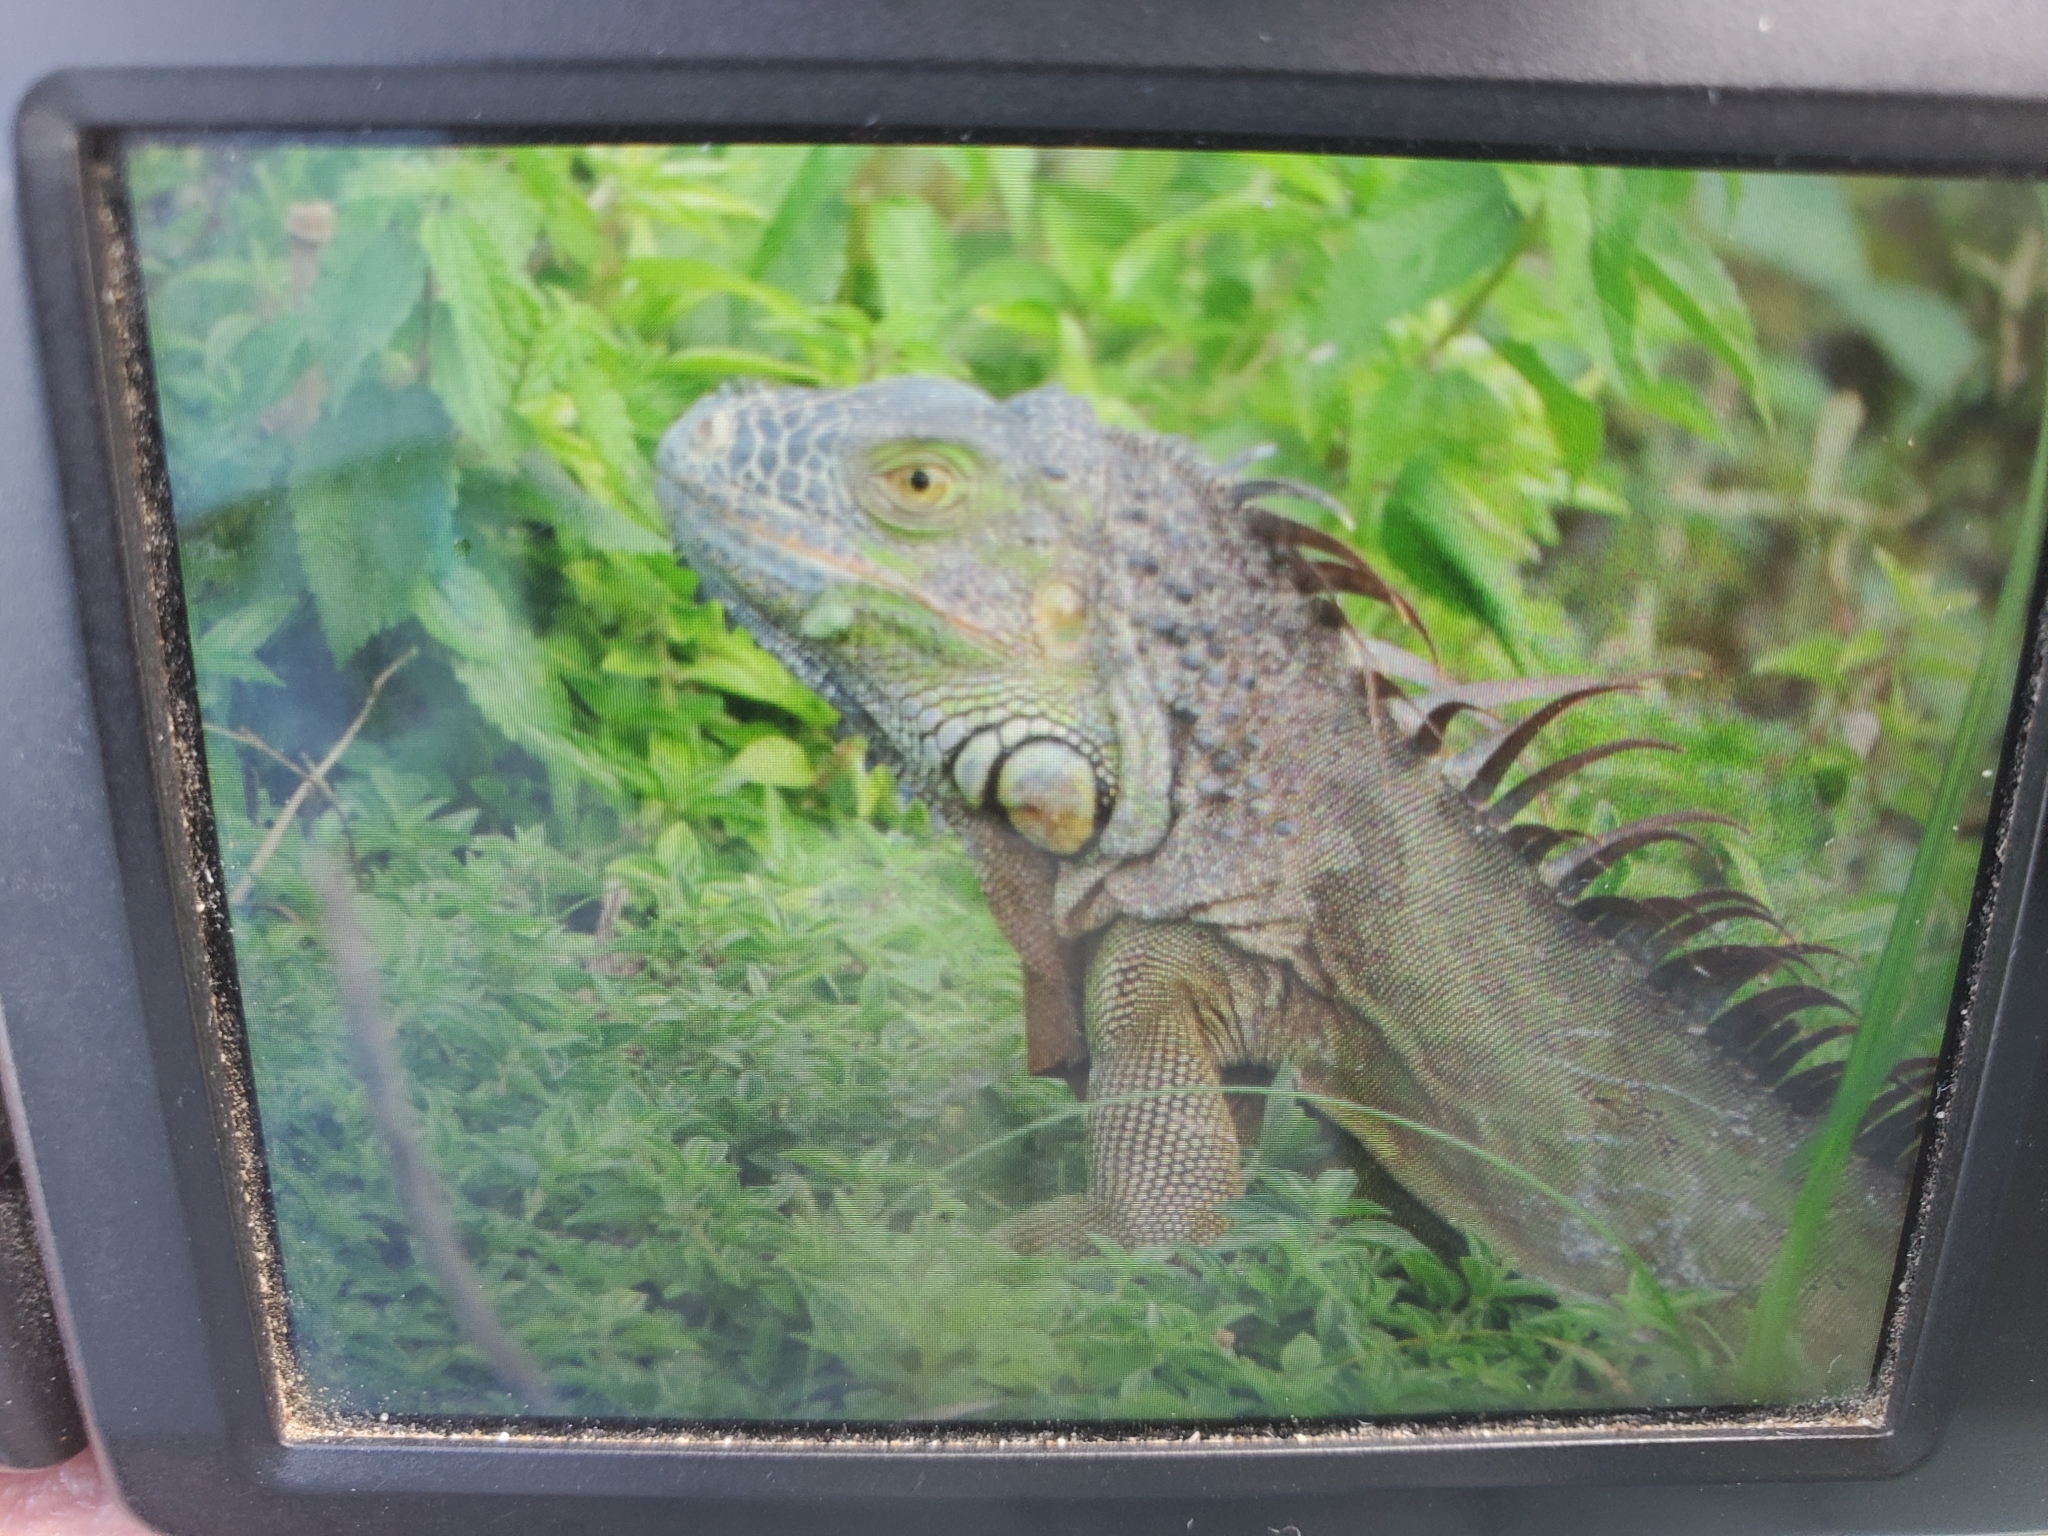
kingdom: Animalia
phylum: Chordata
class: Squamata
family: Iguanidae
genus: Iguana
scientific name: Iguana iguana
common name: Green iguana
